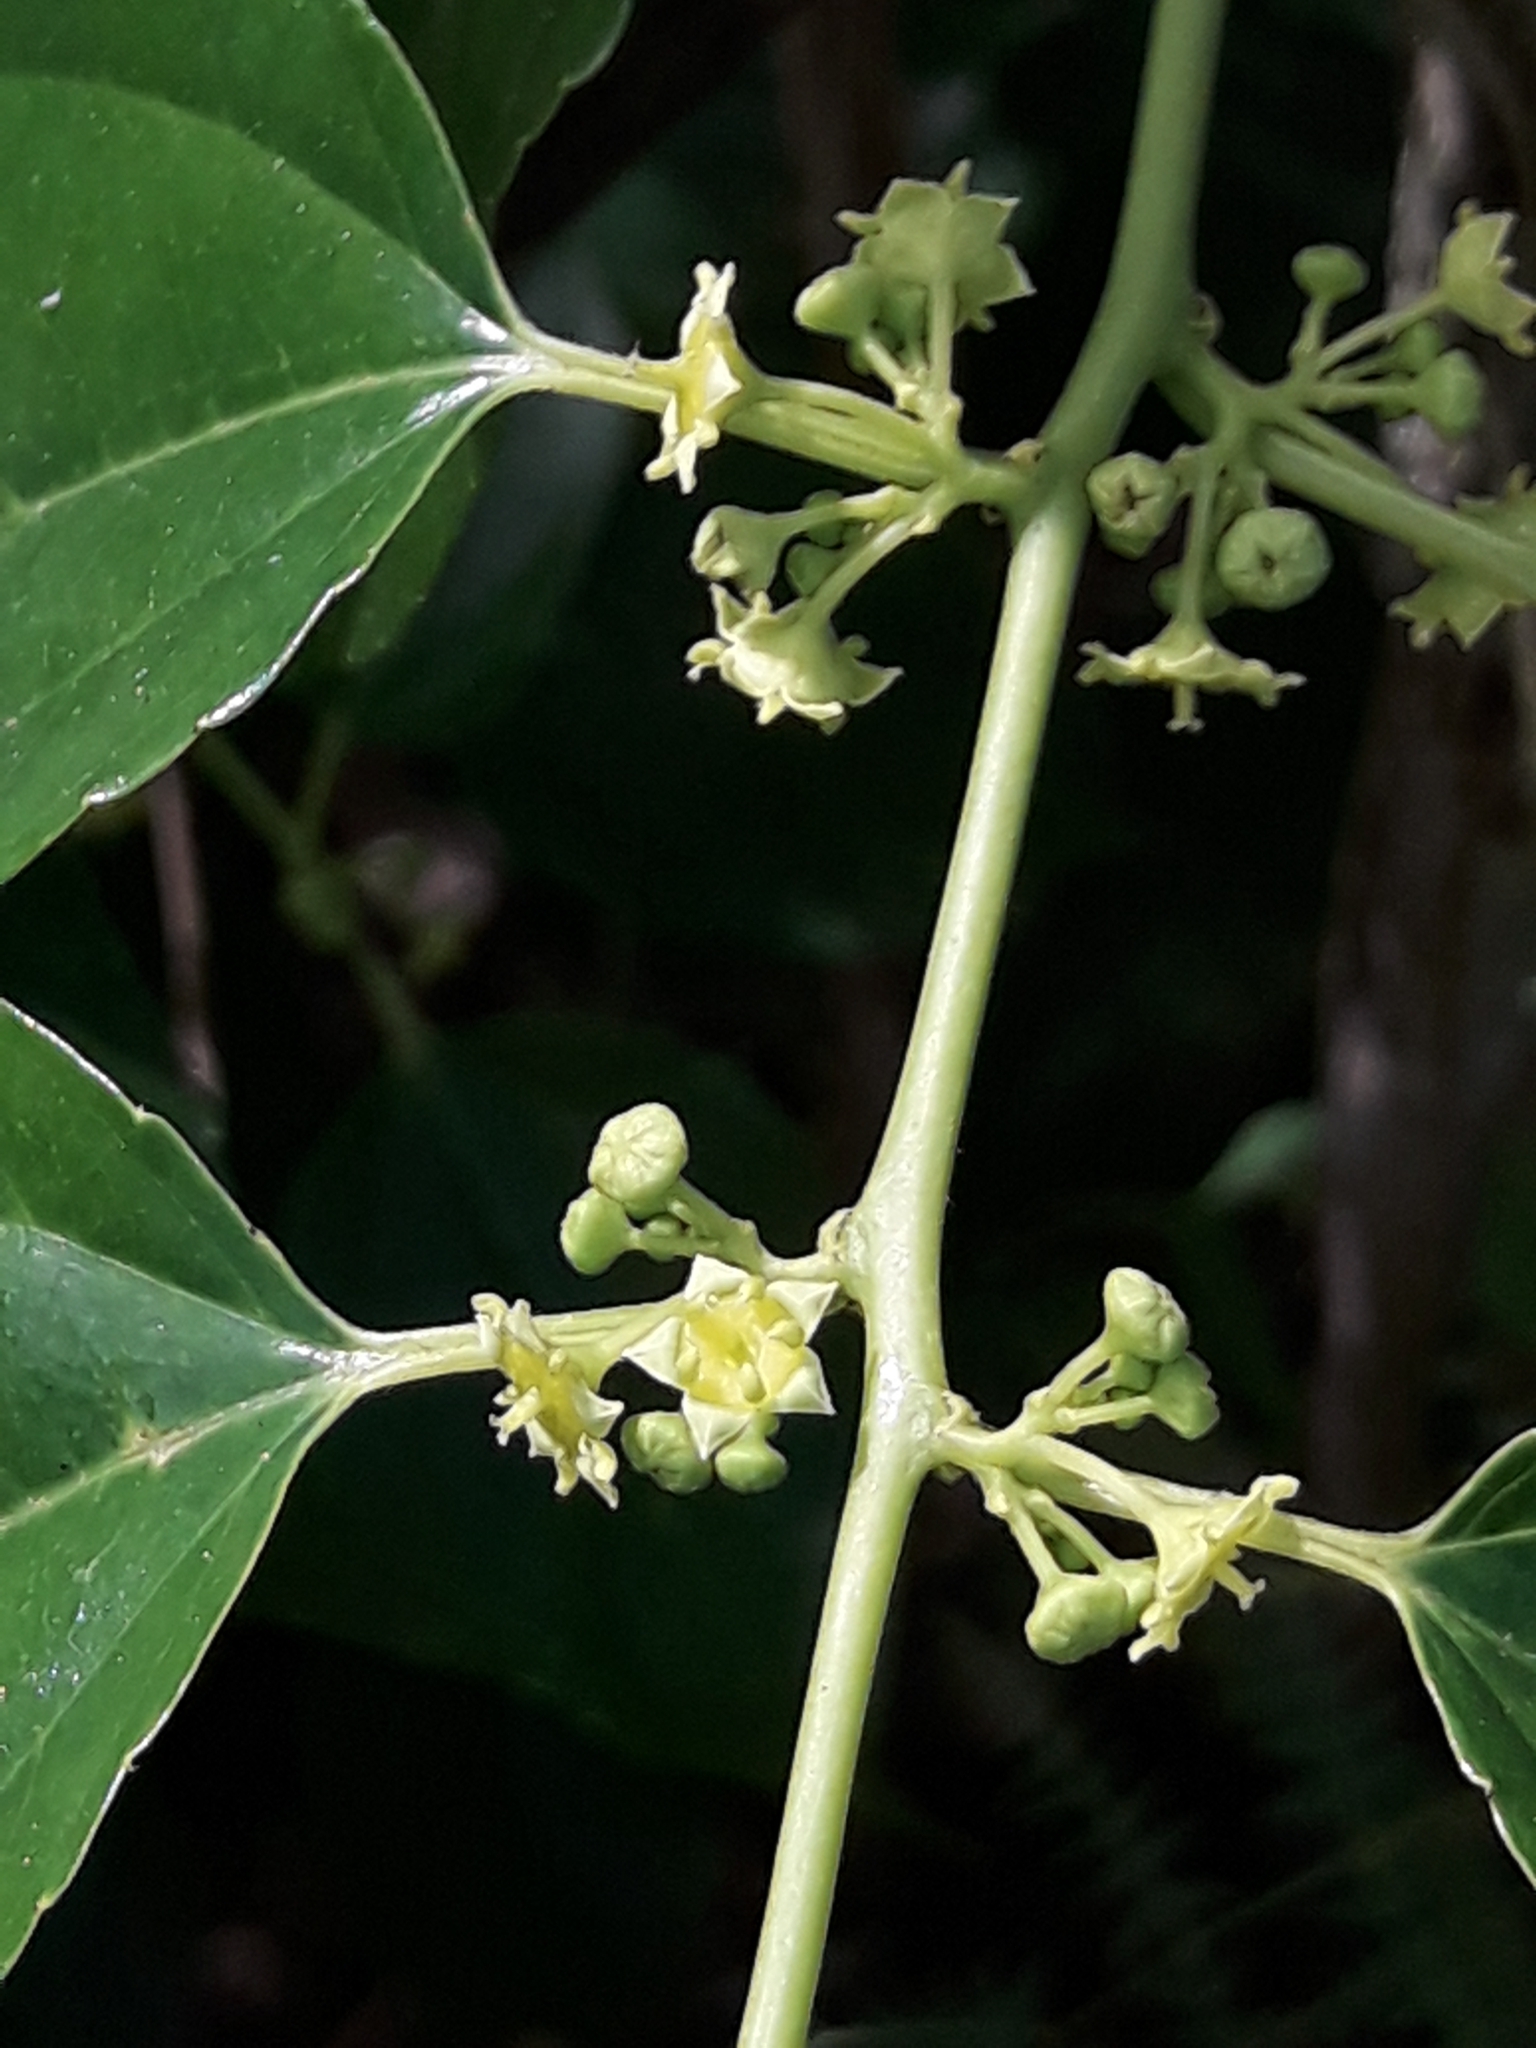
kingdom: Plantae
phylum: Tracheophyta
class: Magnoliopsida
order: Rosales
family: Rhamnaceae
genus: Colubrina
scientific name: Colubrina asiatica
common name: Asian nakedwood
